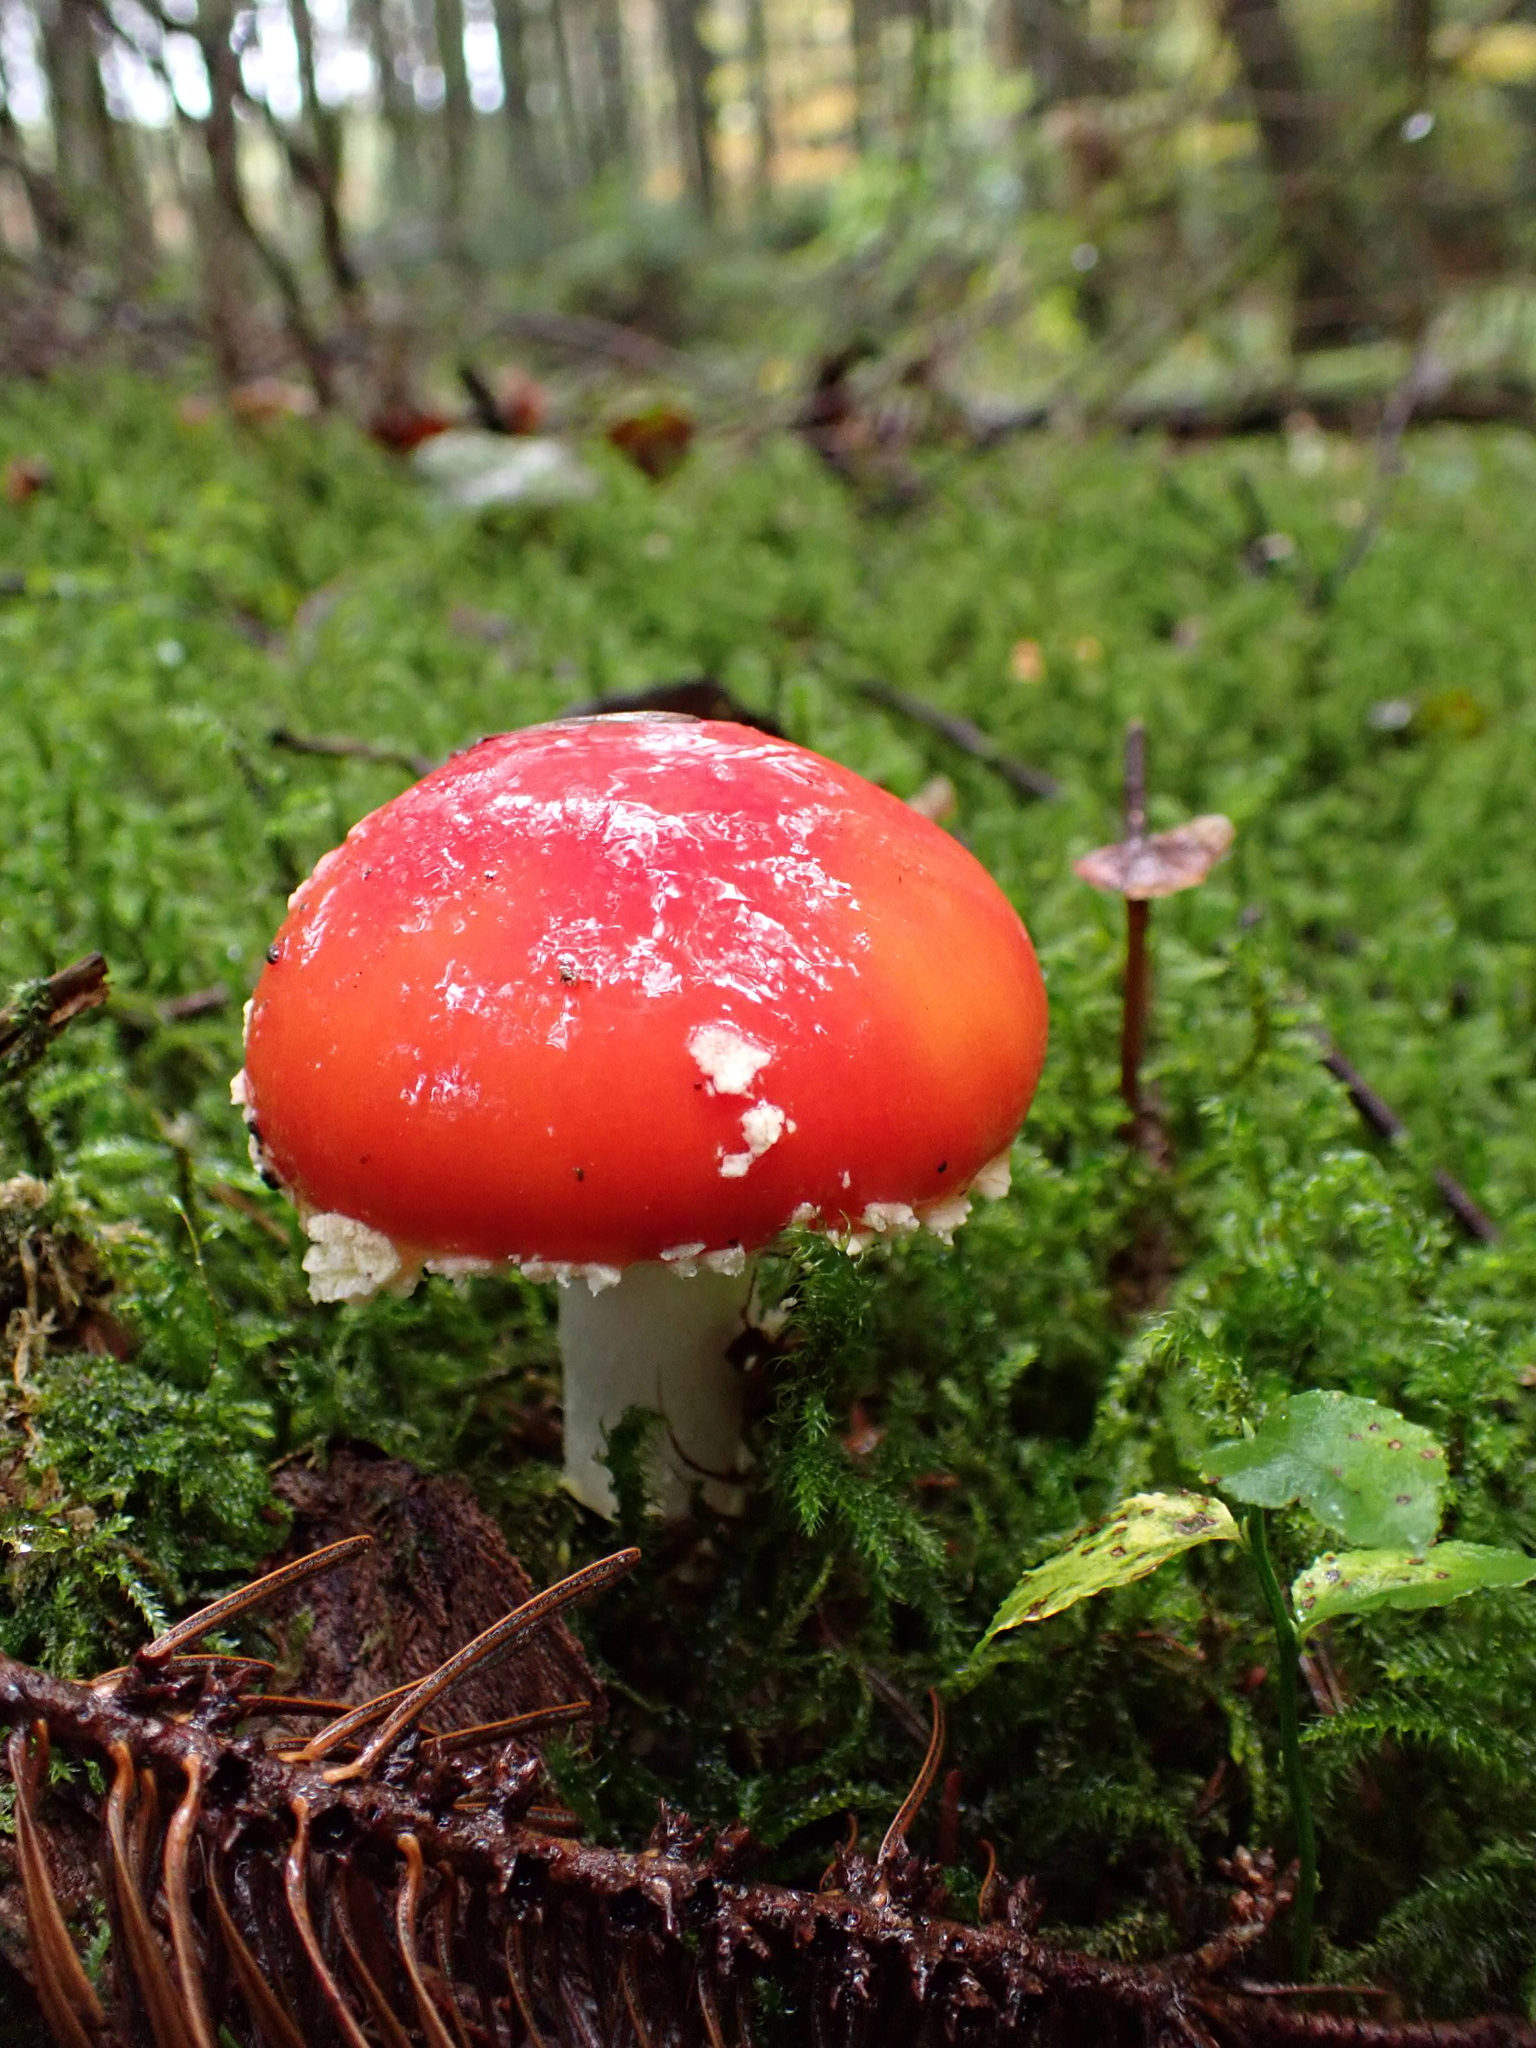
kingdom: Fungi
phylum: Basidiomycota
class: Agaricomycetes
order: Agaricales
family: Amanitaceae
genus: Amanita
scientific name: Amanita muscaria
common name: Fly agaric
